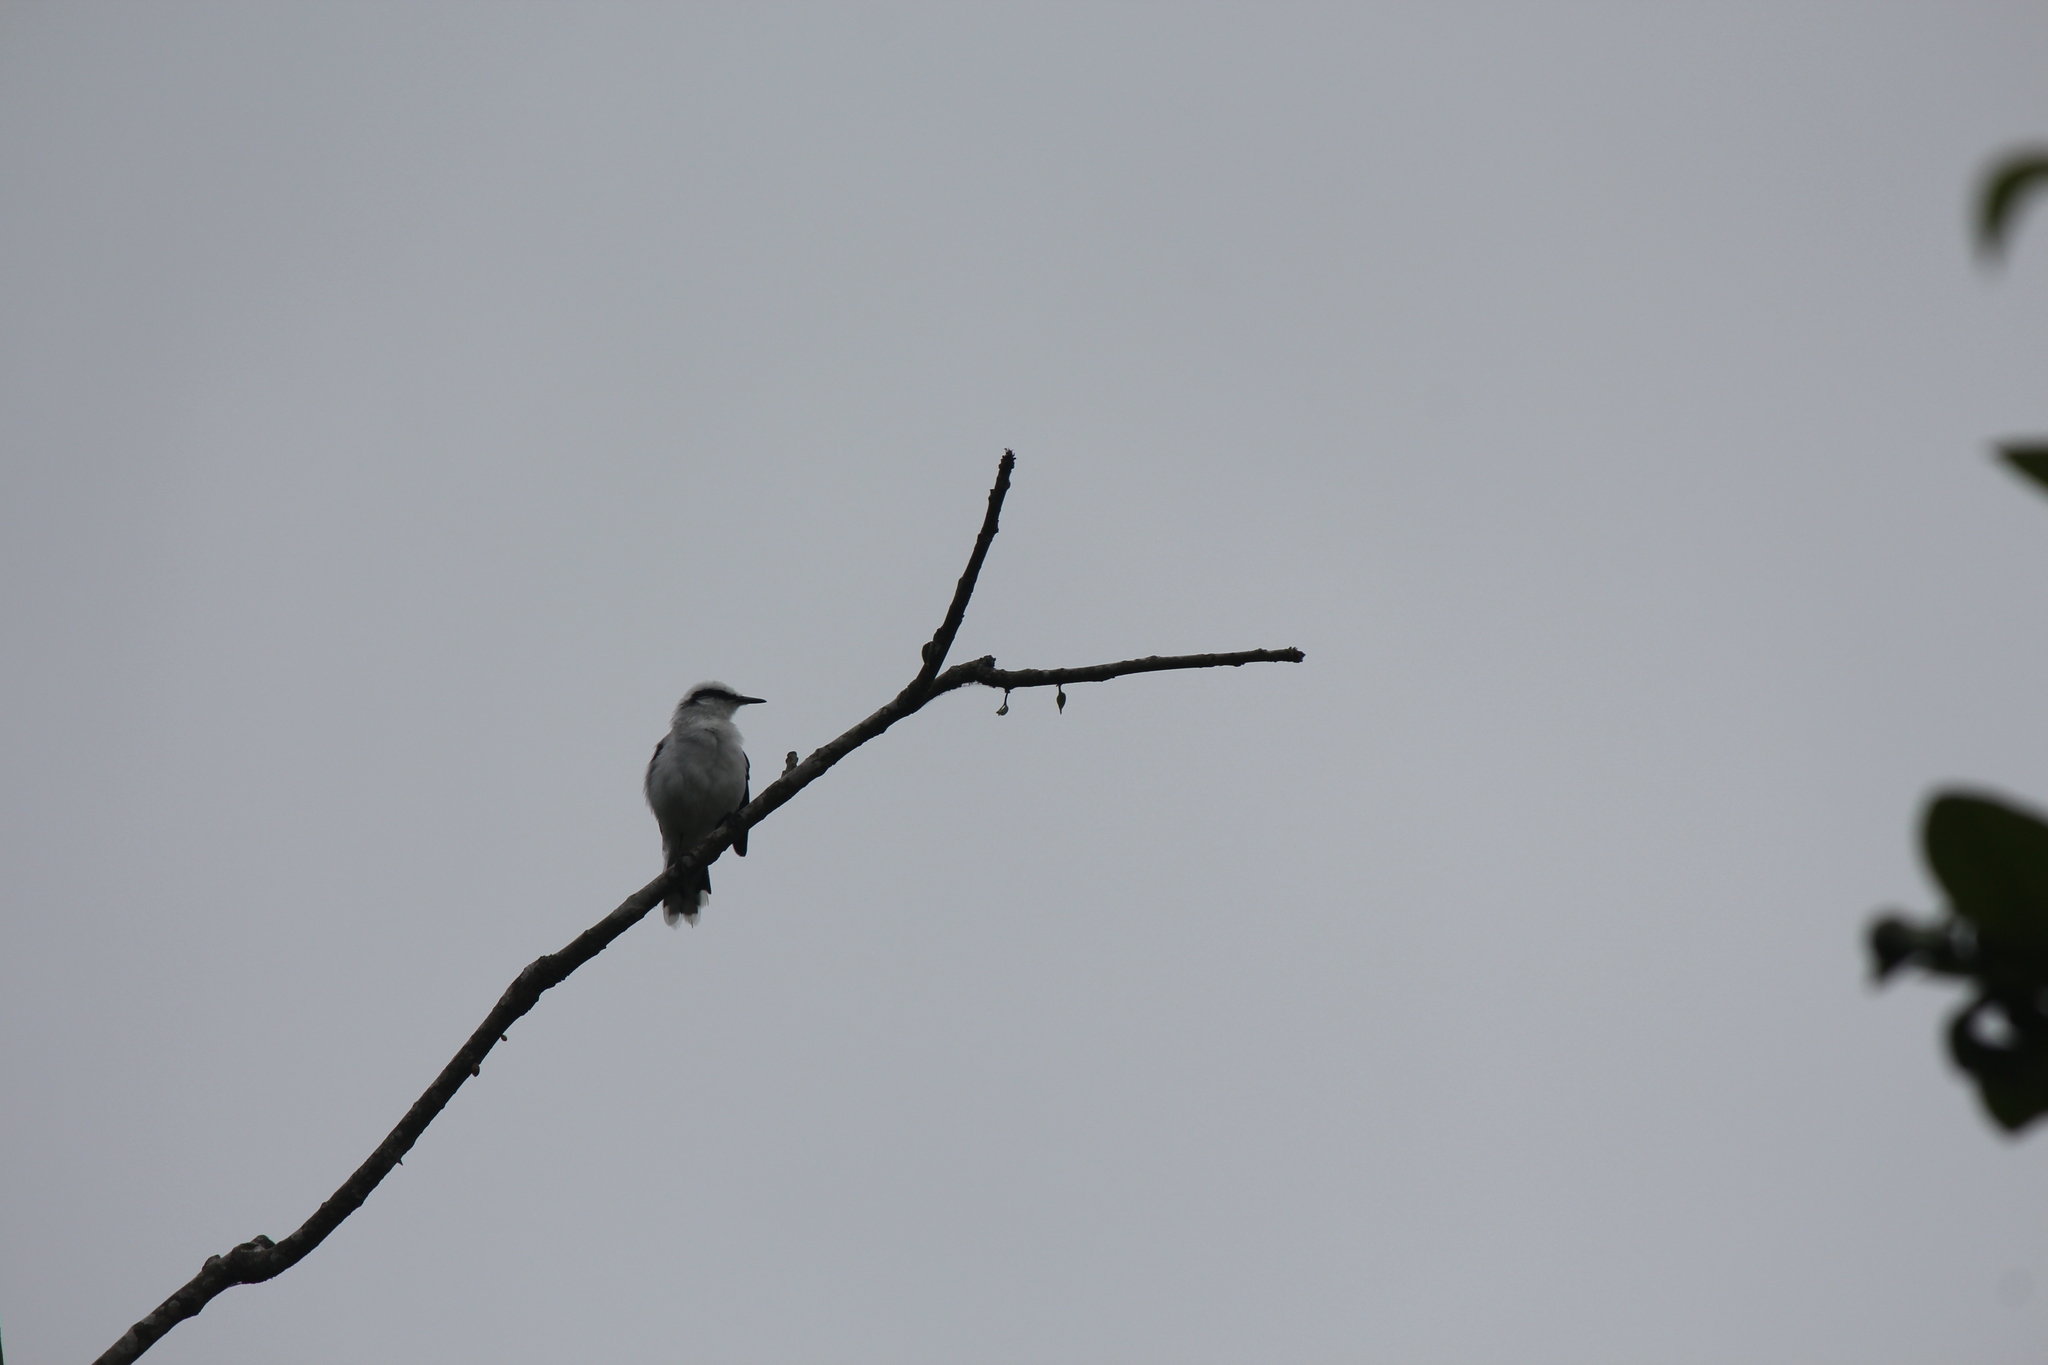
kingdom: Animalia
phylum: Chordata
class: Aves
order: Passeriformes
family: Tyrannidae
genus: Fluvicola
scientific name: Fluvicola nengeta
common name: Masked water tyrant
